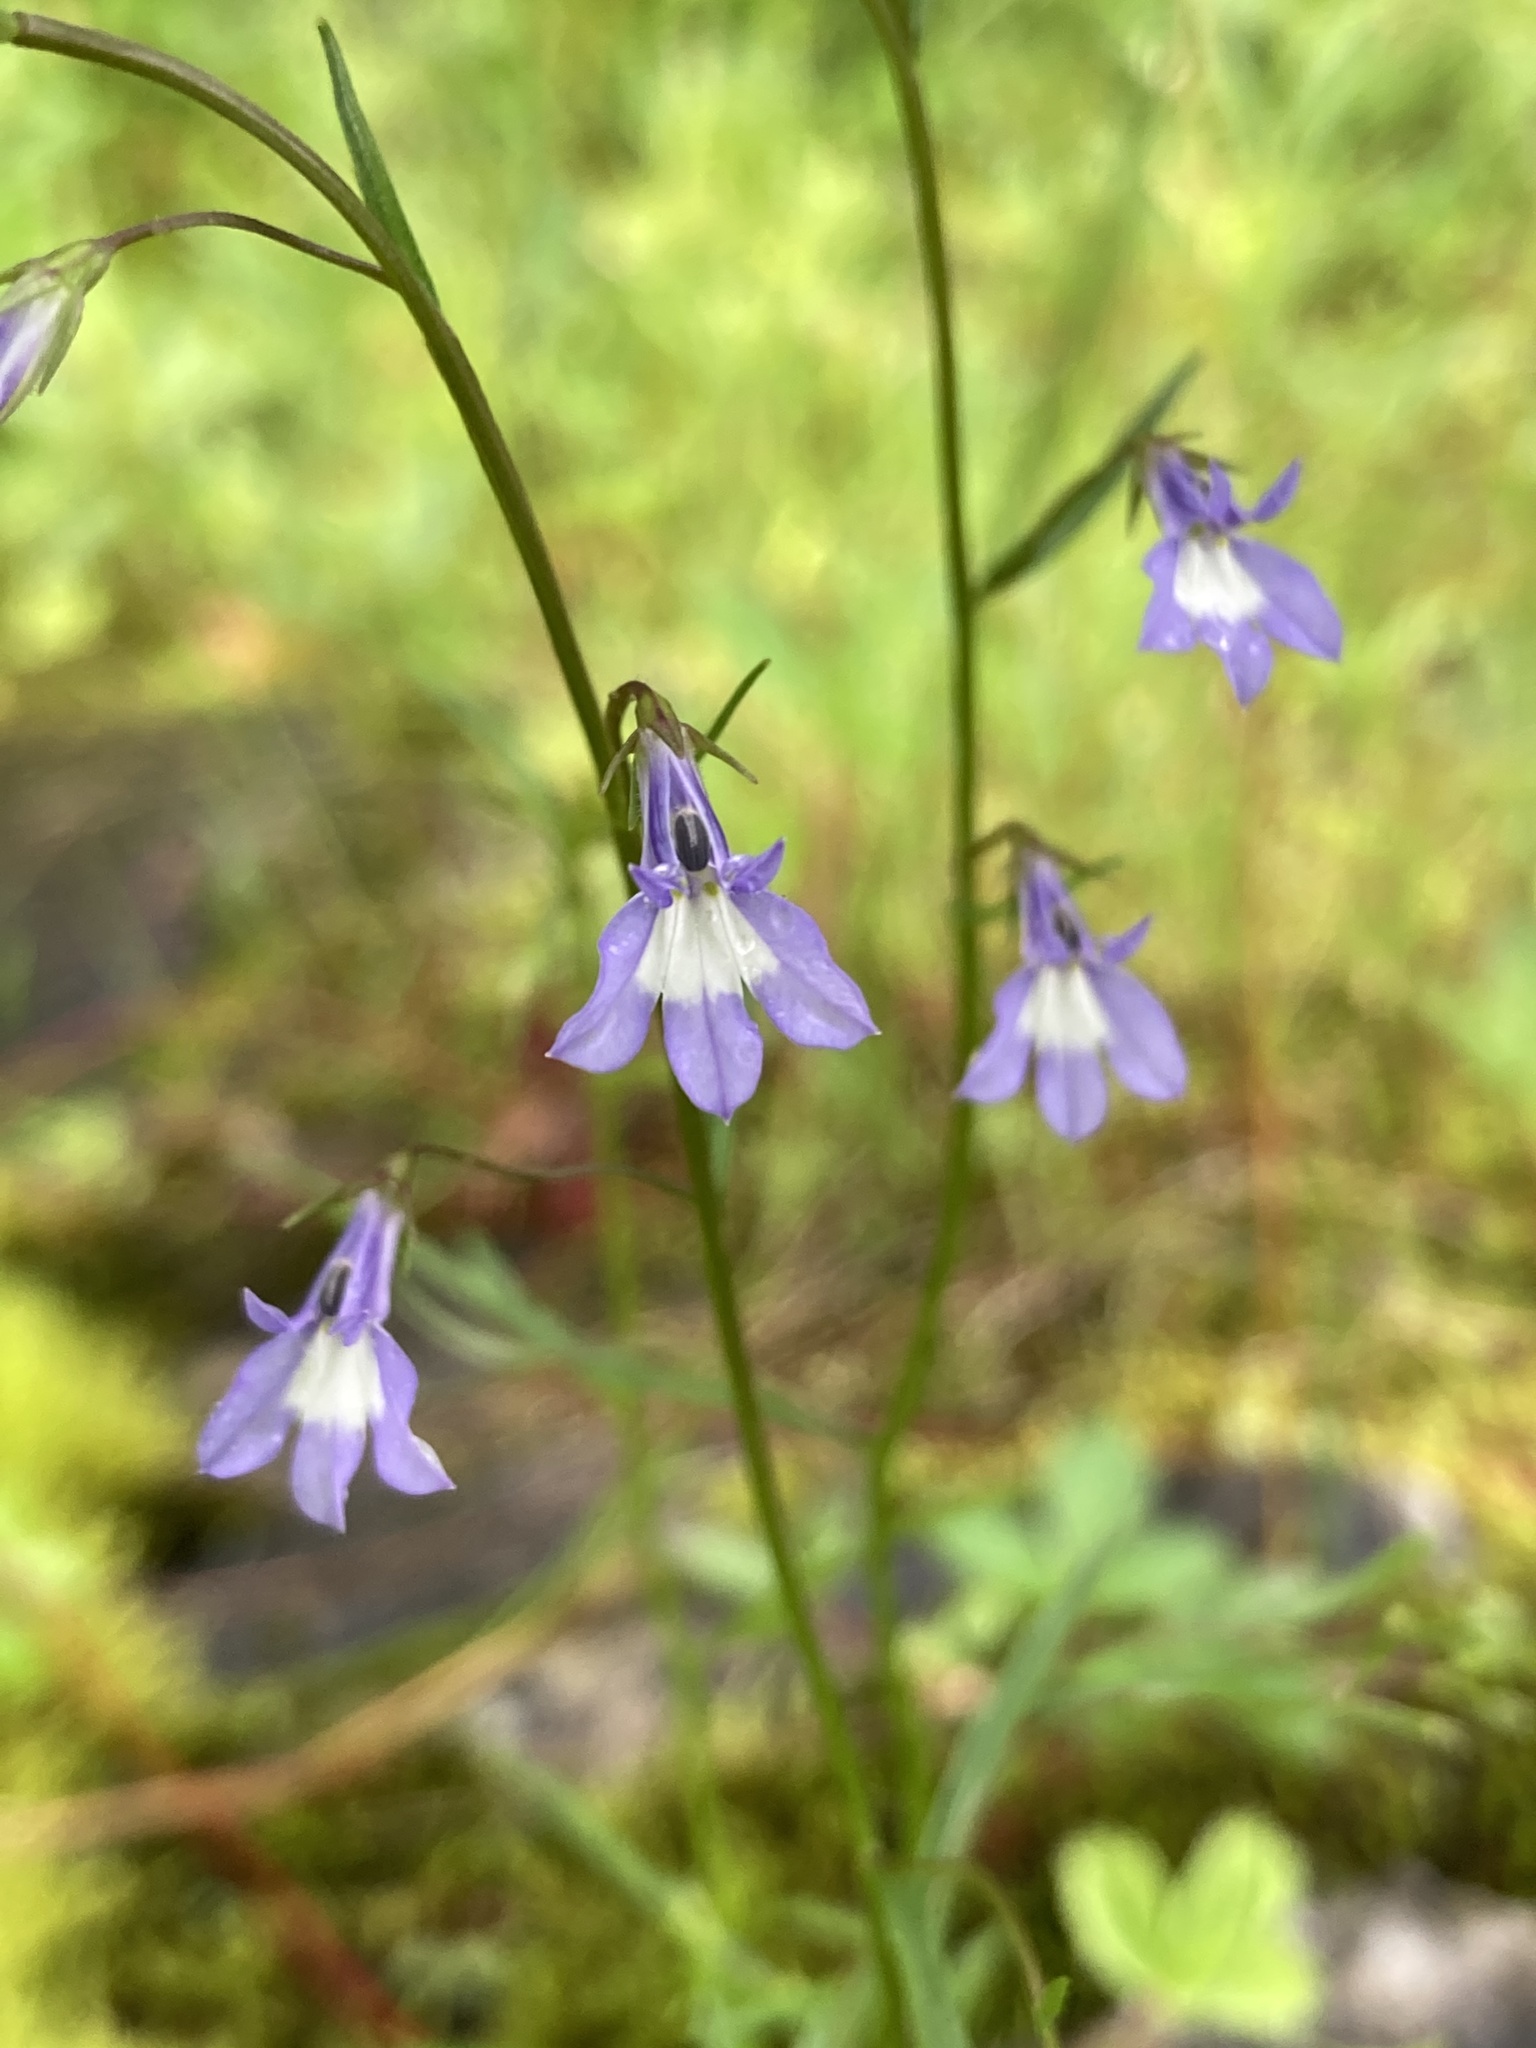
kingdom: Plantae
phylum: Tracheophyta
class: Magnoliopsida
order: Asterales
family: Campanulaceae
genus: Lobelia
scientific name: Lobelia kalmii
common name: Kalm's lobelia
